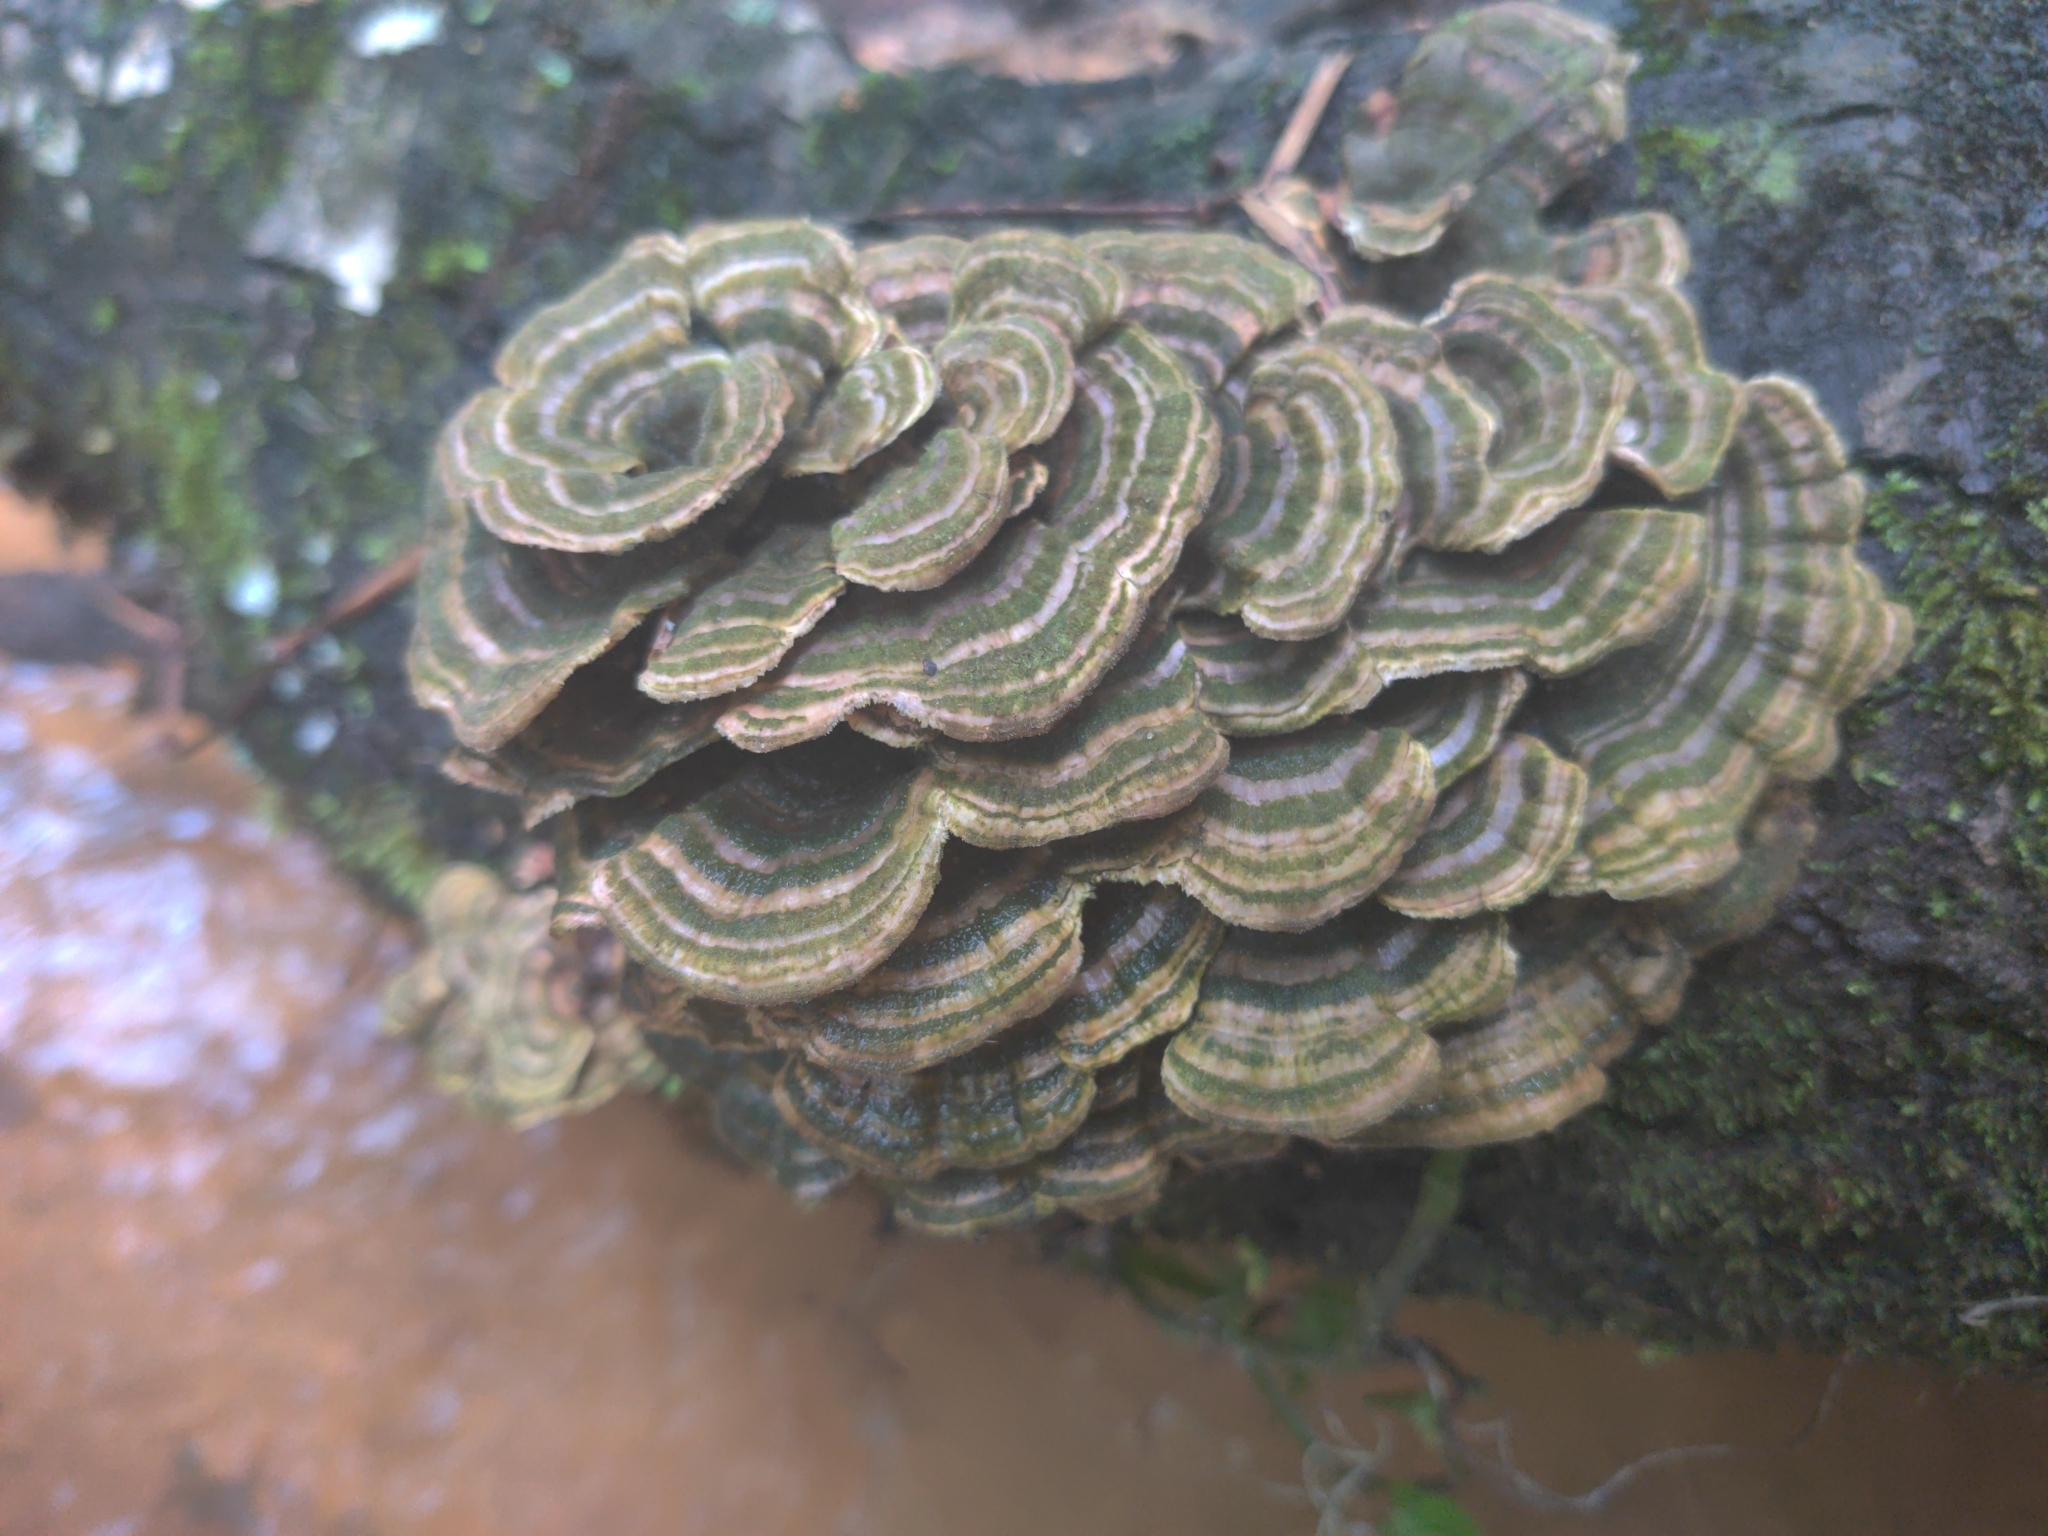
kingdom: Fungi
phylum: Basidiomycota
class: Agaricomycetes
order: Polyporales
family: Polyporaceae
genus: Trametes
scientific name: Trametes versicolor
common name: Turkeytail
